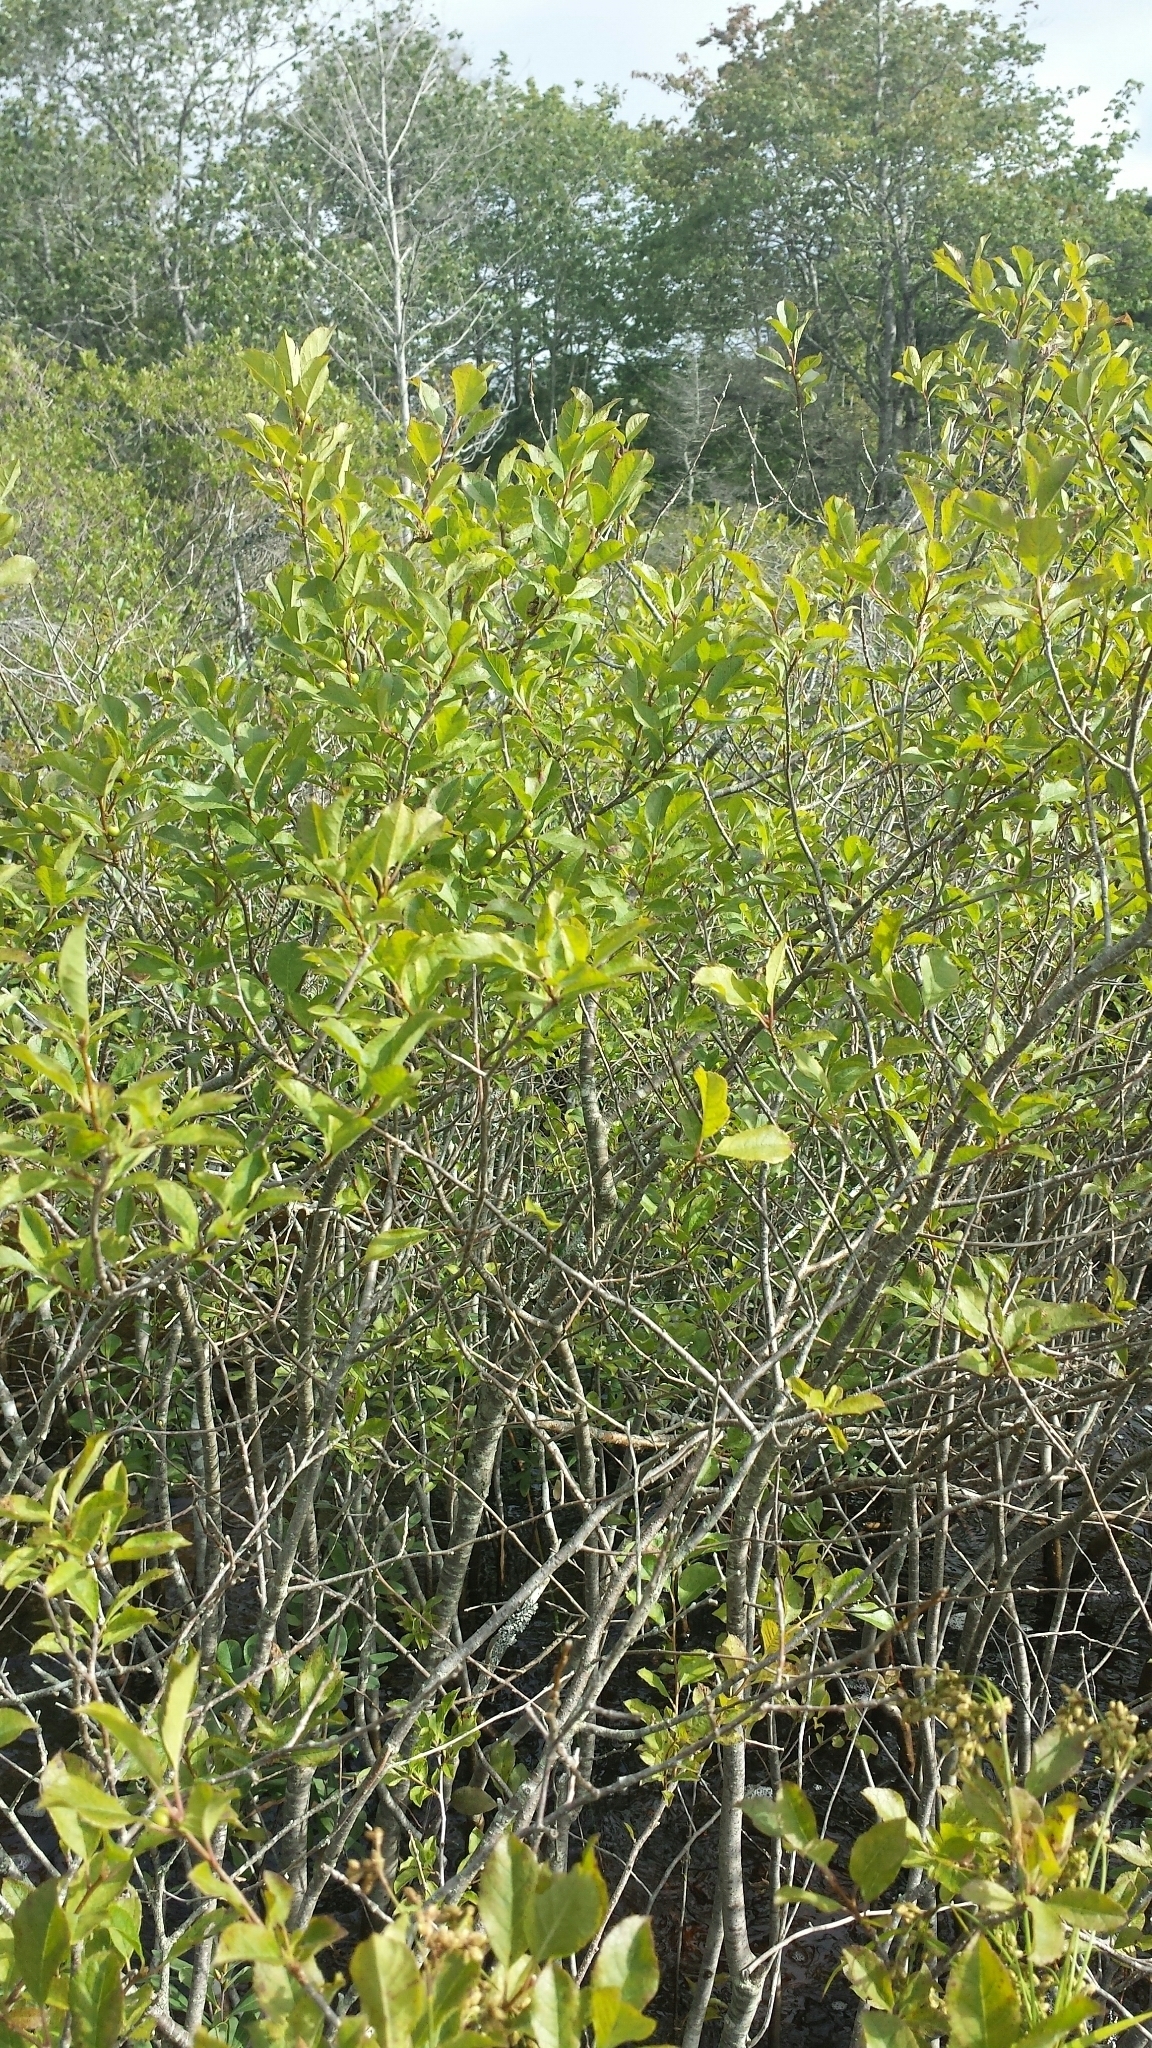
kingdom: Plantae
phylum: Tracheophyta
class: Magnoliopsida
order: Aquifoliales
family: Aquifoliaceae
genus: Ilex
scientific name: Ilex verticillata
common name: Virginia winterberry
